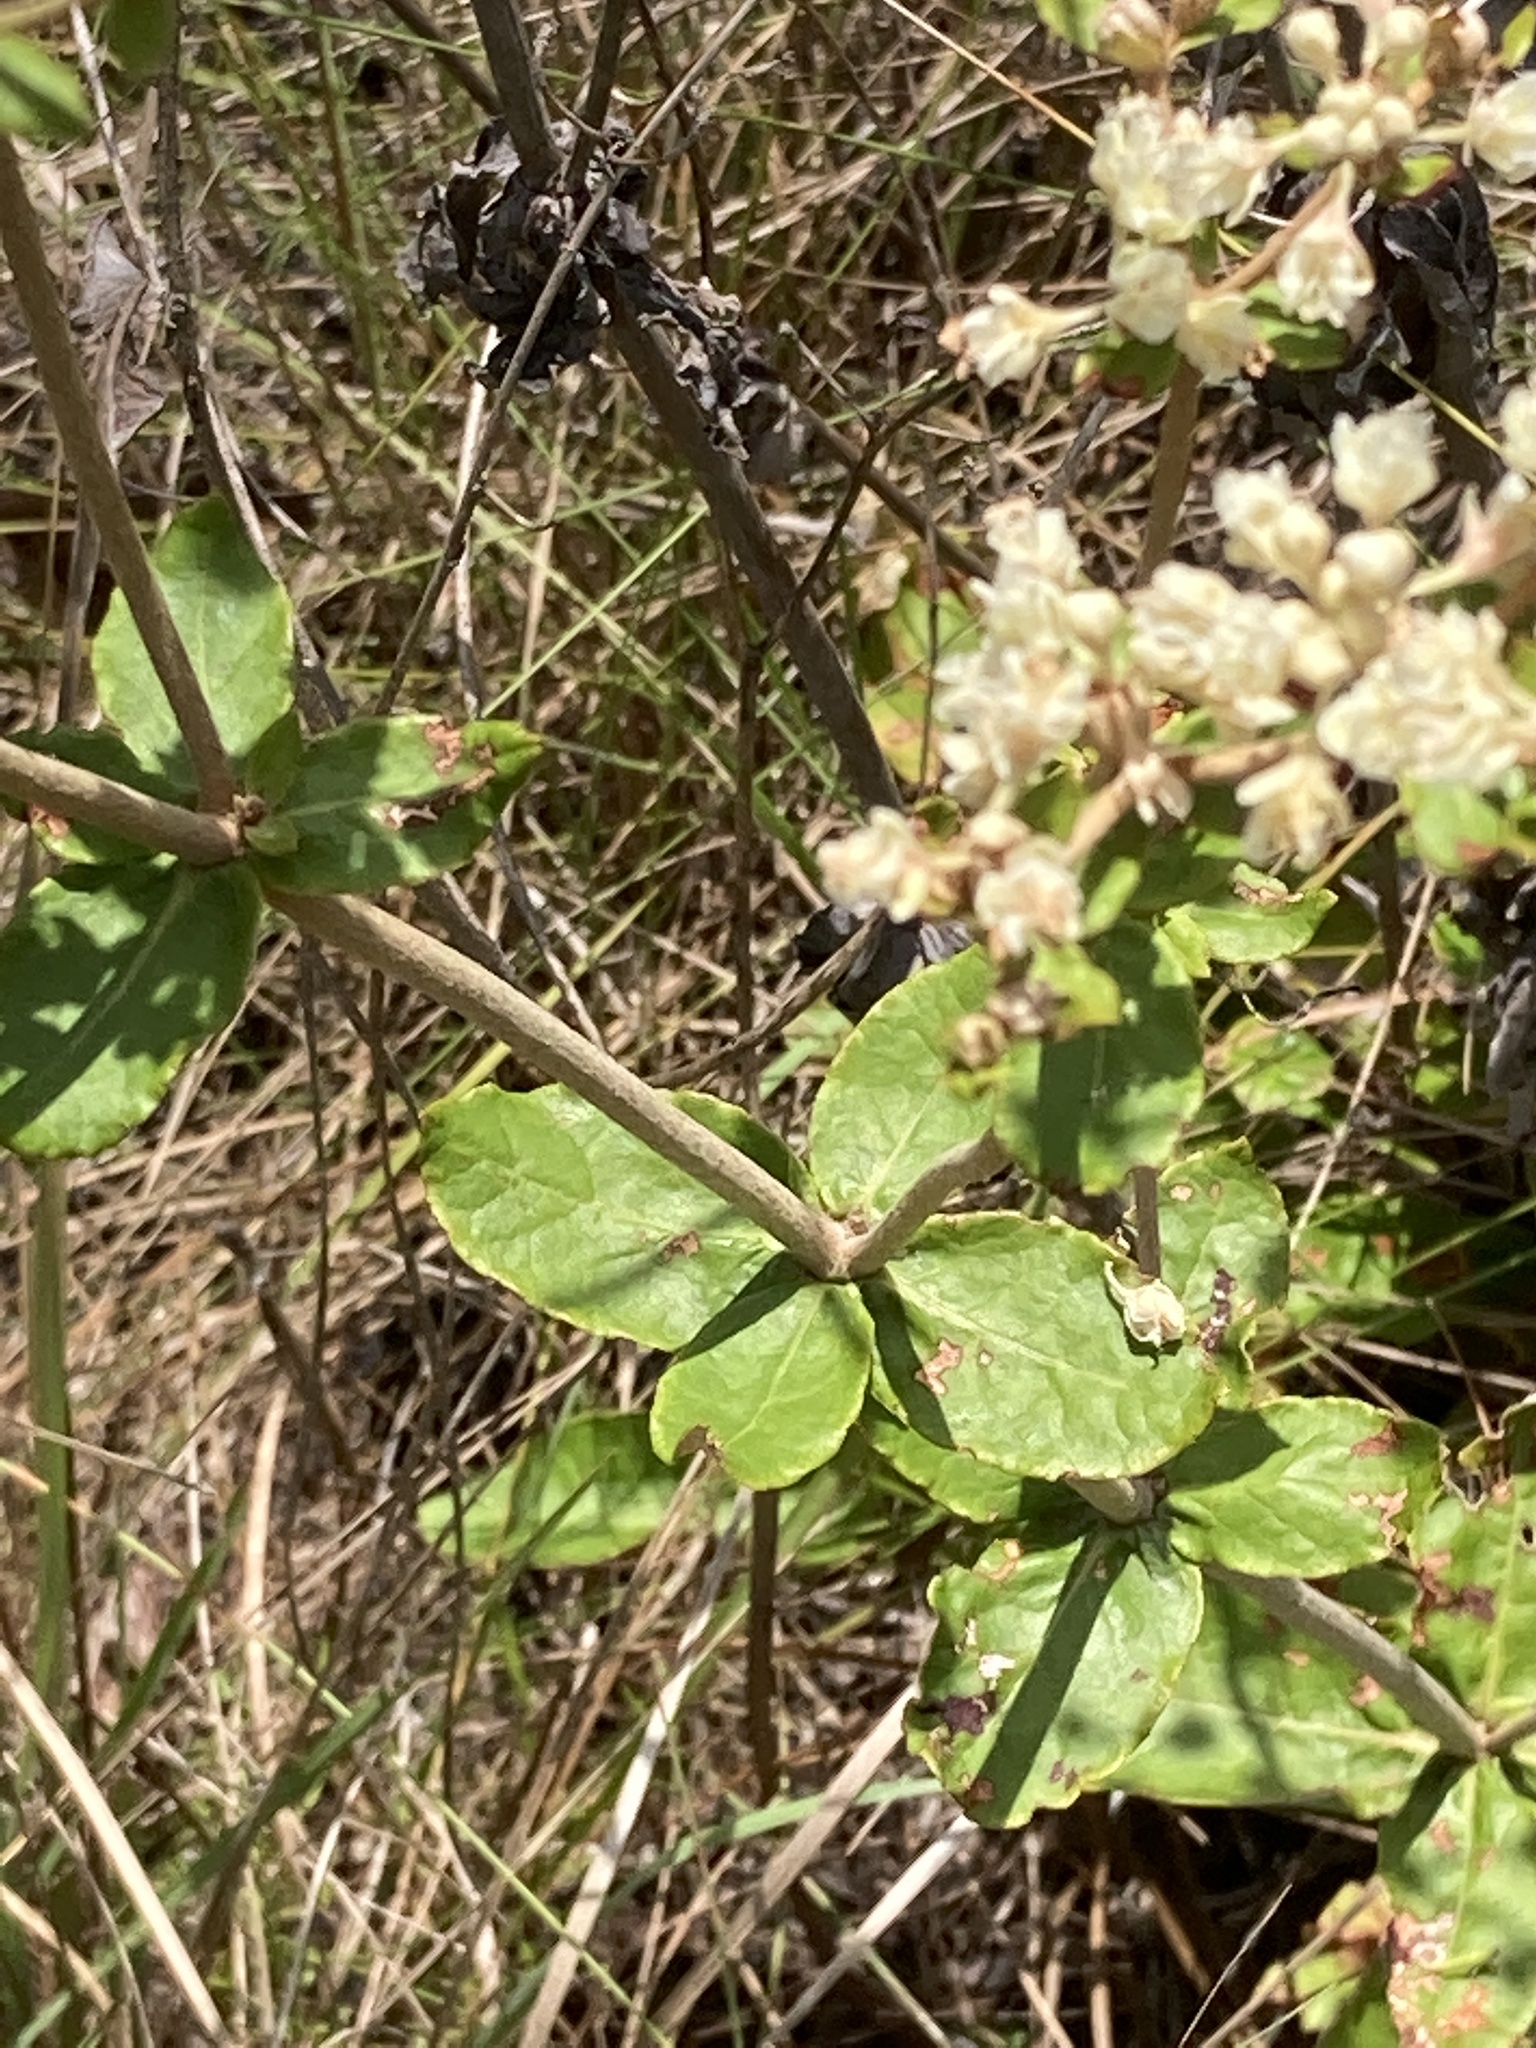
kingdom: Plantae
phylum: Tracheophyta
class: Magnoliopsida
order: Caryophyllales
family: Polygonaceae
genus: Eriogonum
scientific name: Eriogonum tomentosum
